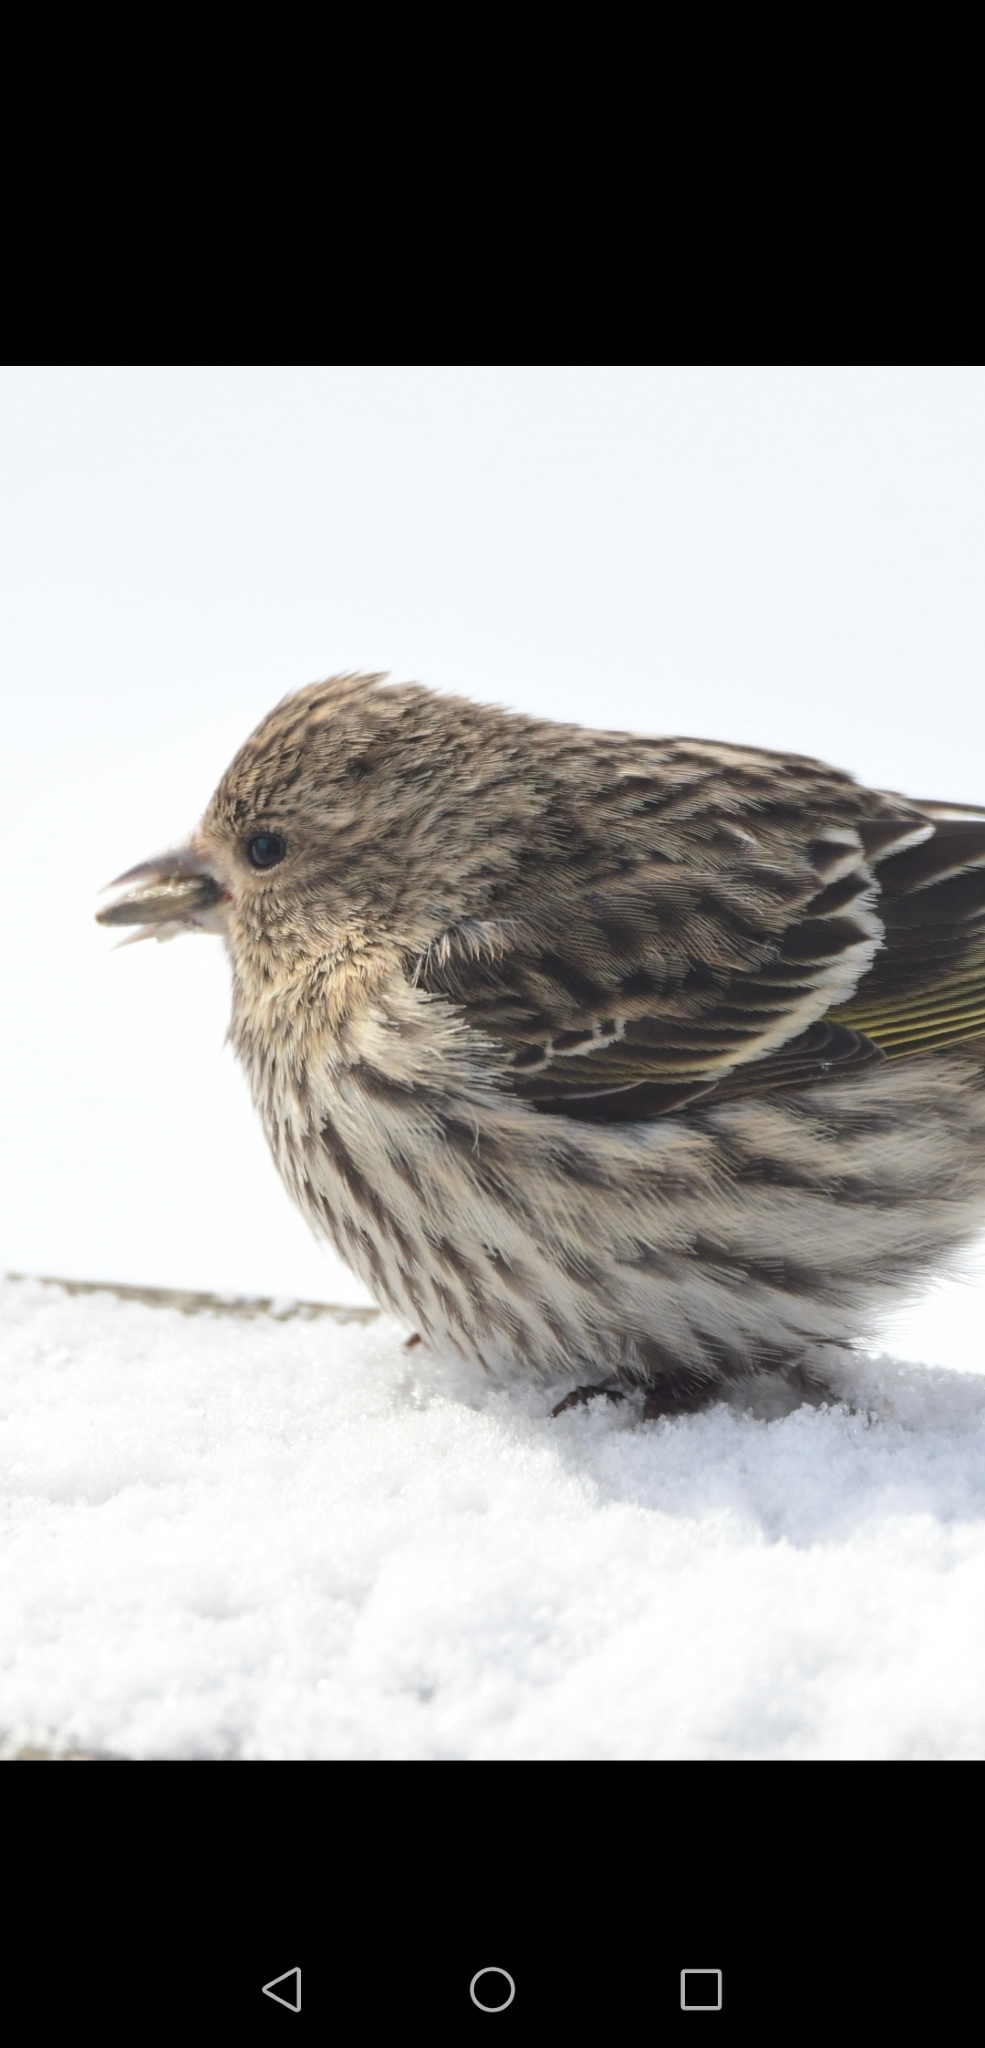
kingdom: Animalia
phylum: Chordata
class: Aves
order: Passeriformes
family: Fringillidae
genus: Spinus
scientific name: Spinus pinus
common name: Pine siskin
